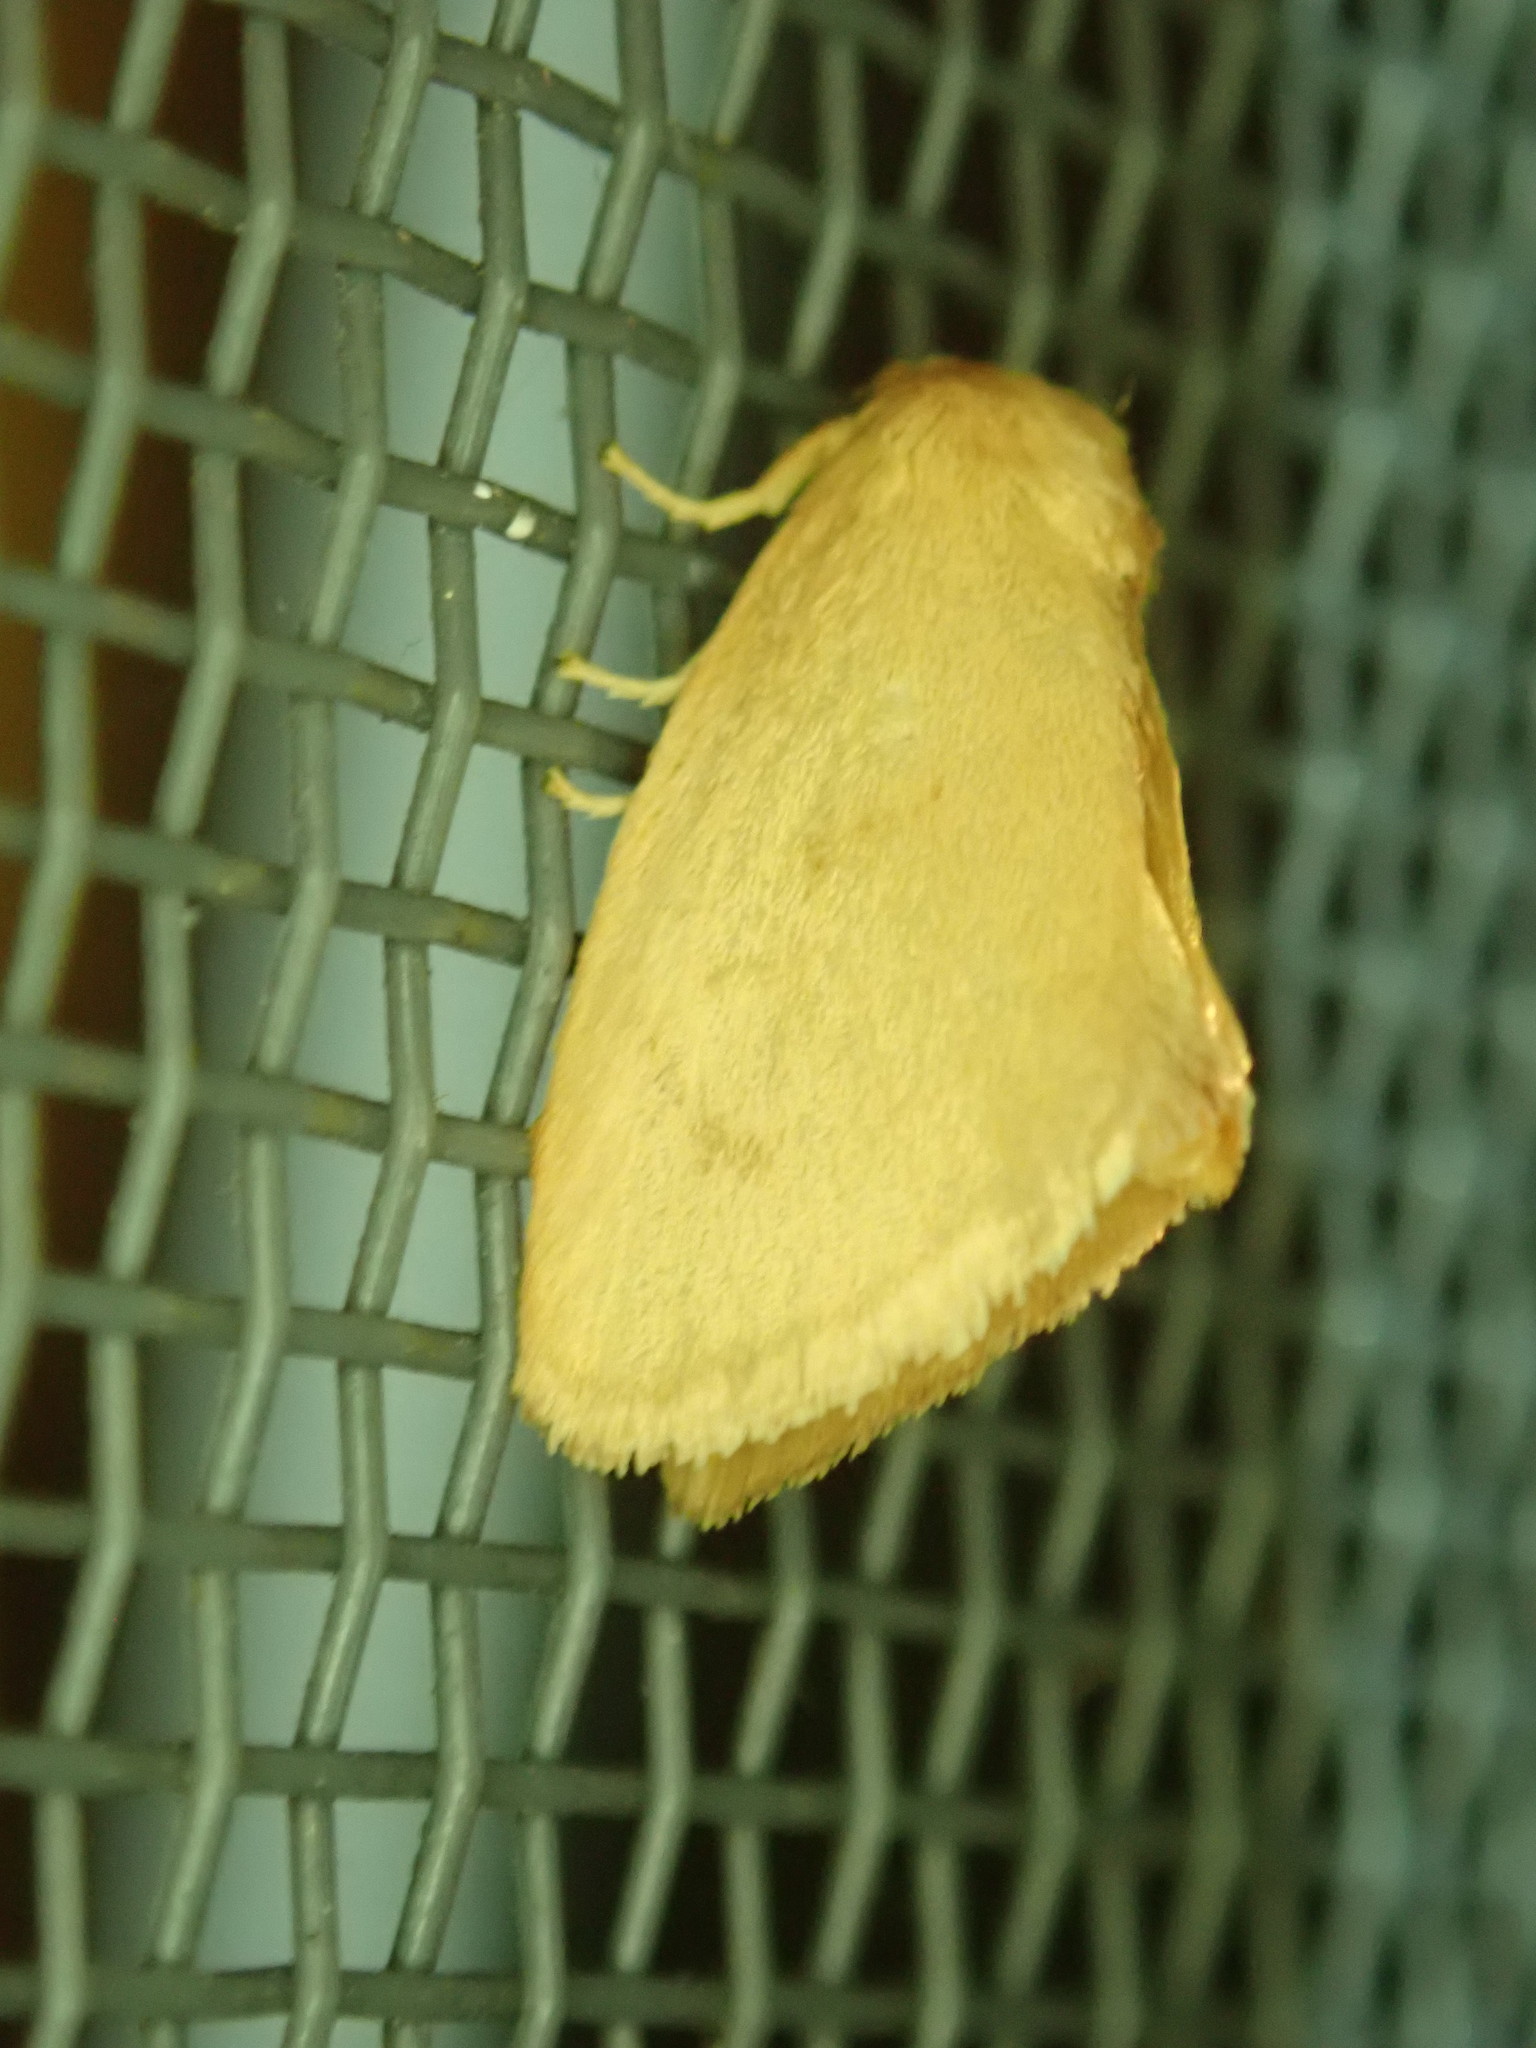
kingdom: Animalia
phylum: Arthropoda
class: Insecta
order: Lepidoptera
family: Limacodidae
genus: Tortricidia
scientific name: Tortricidia pallida
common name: Red-crossed button slug moth
